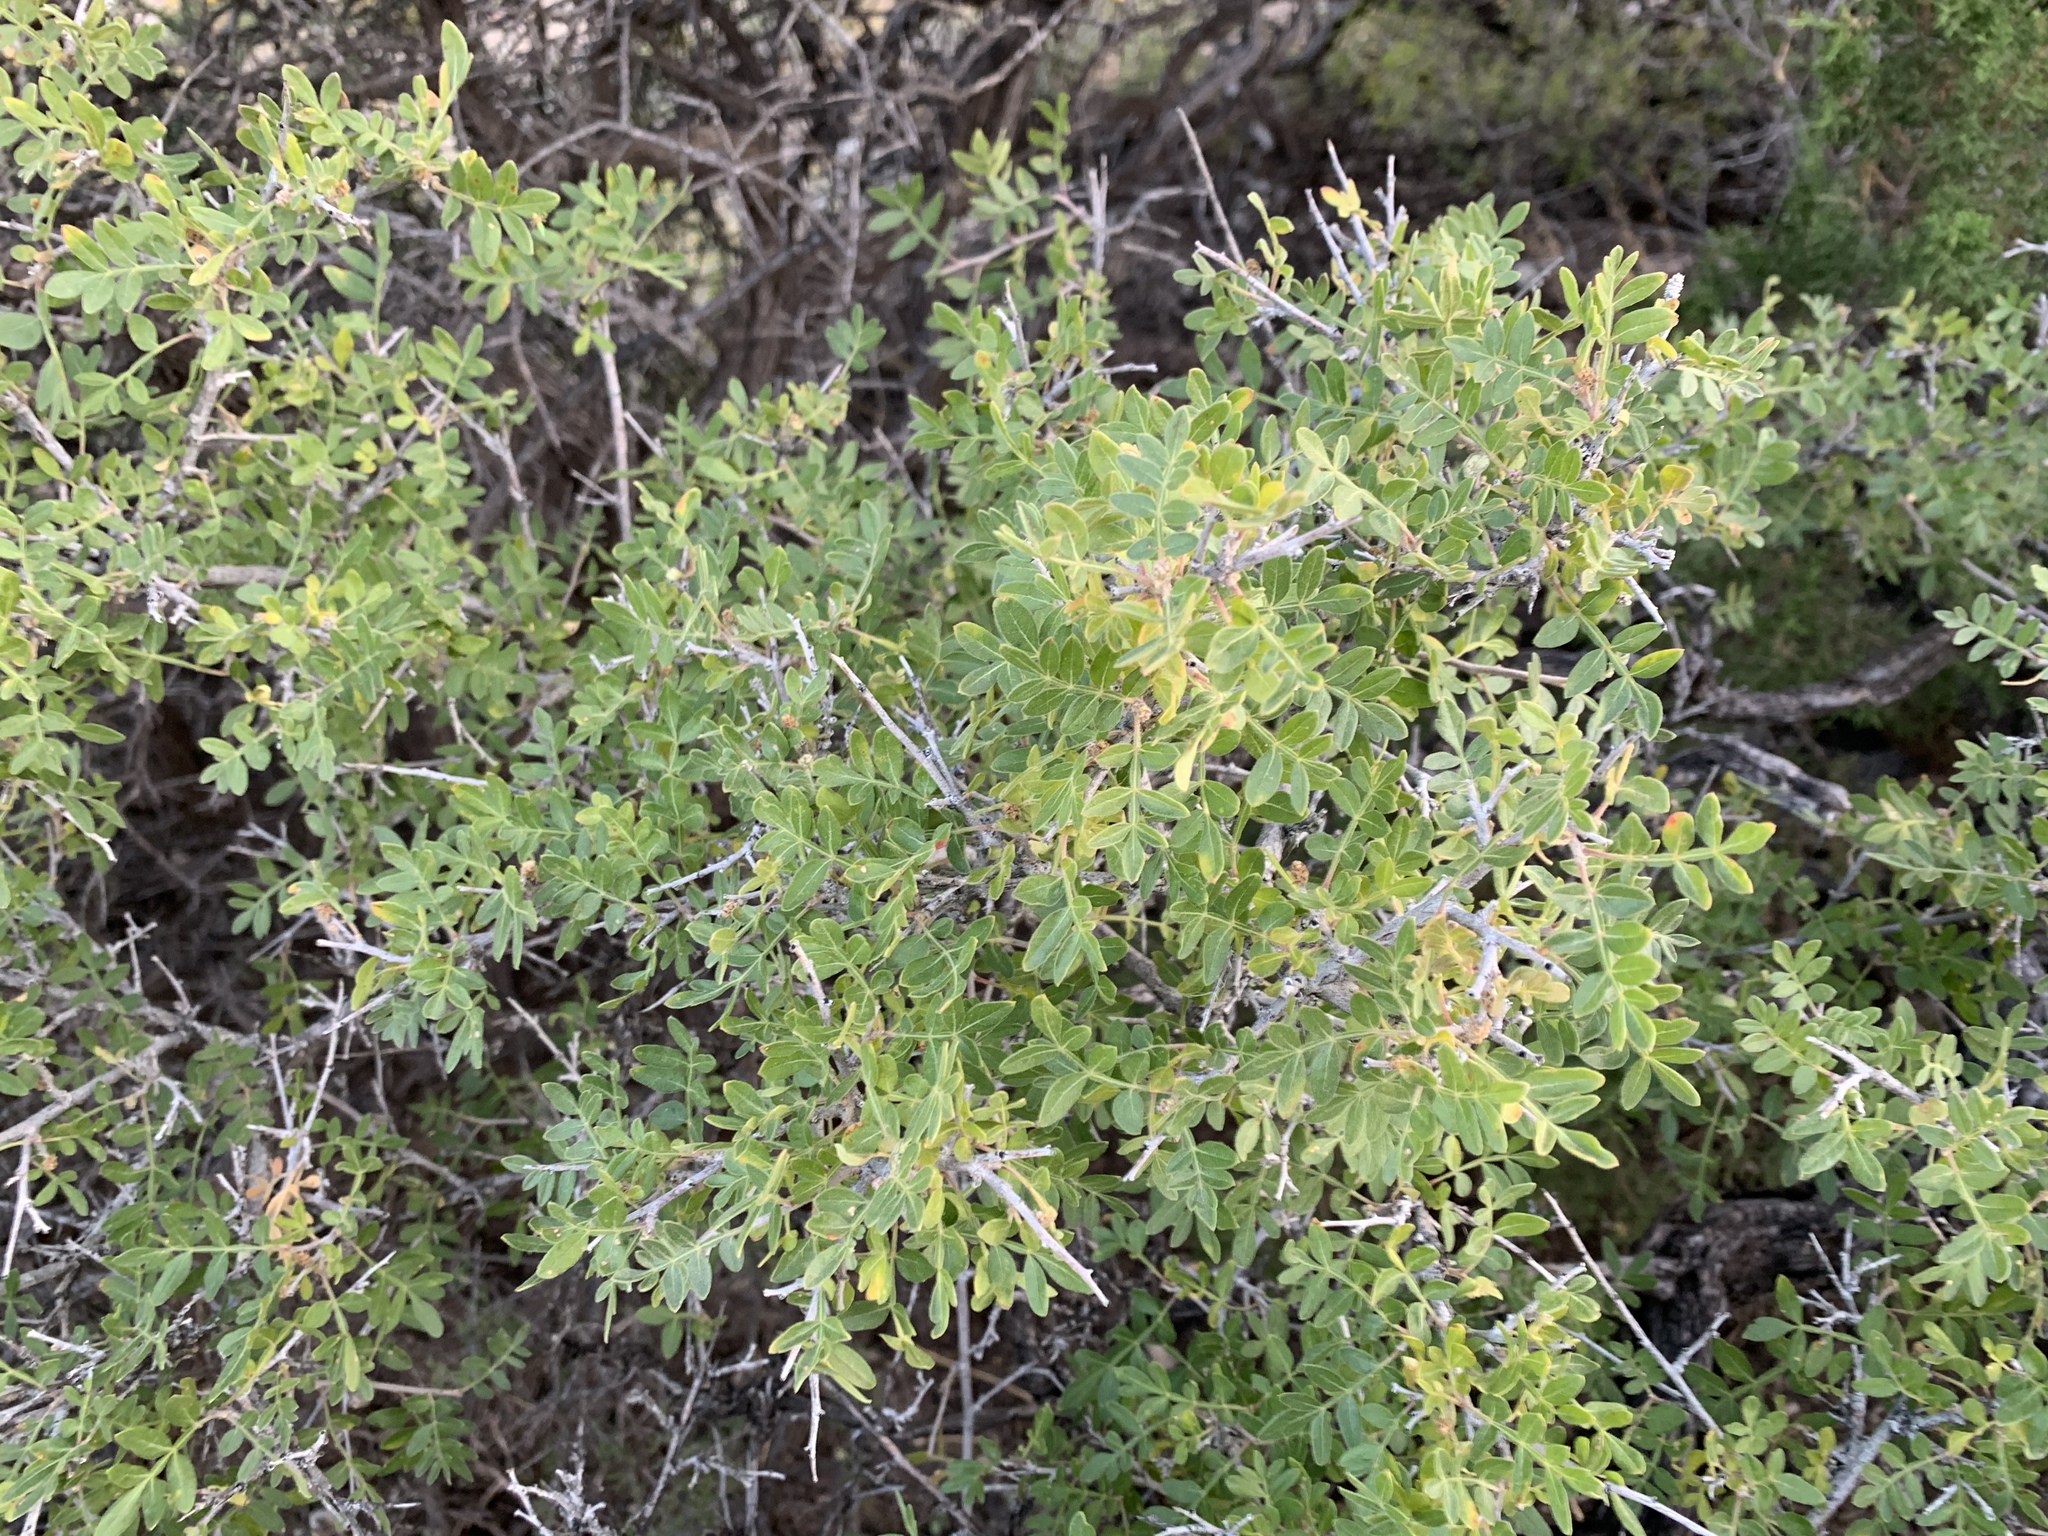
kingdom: Plantae
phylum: Tracheophyta
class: Magnoliopsida
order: Sapindales
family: Anacardiaceae
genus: Rhus
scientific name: Rhus microphylla
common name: Desert sumac
